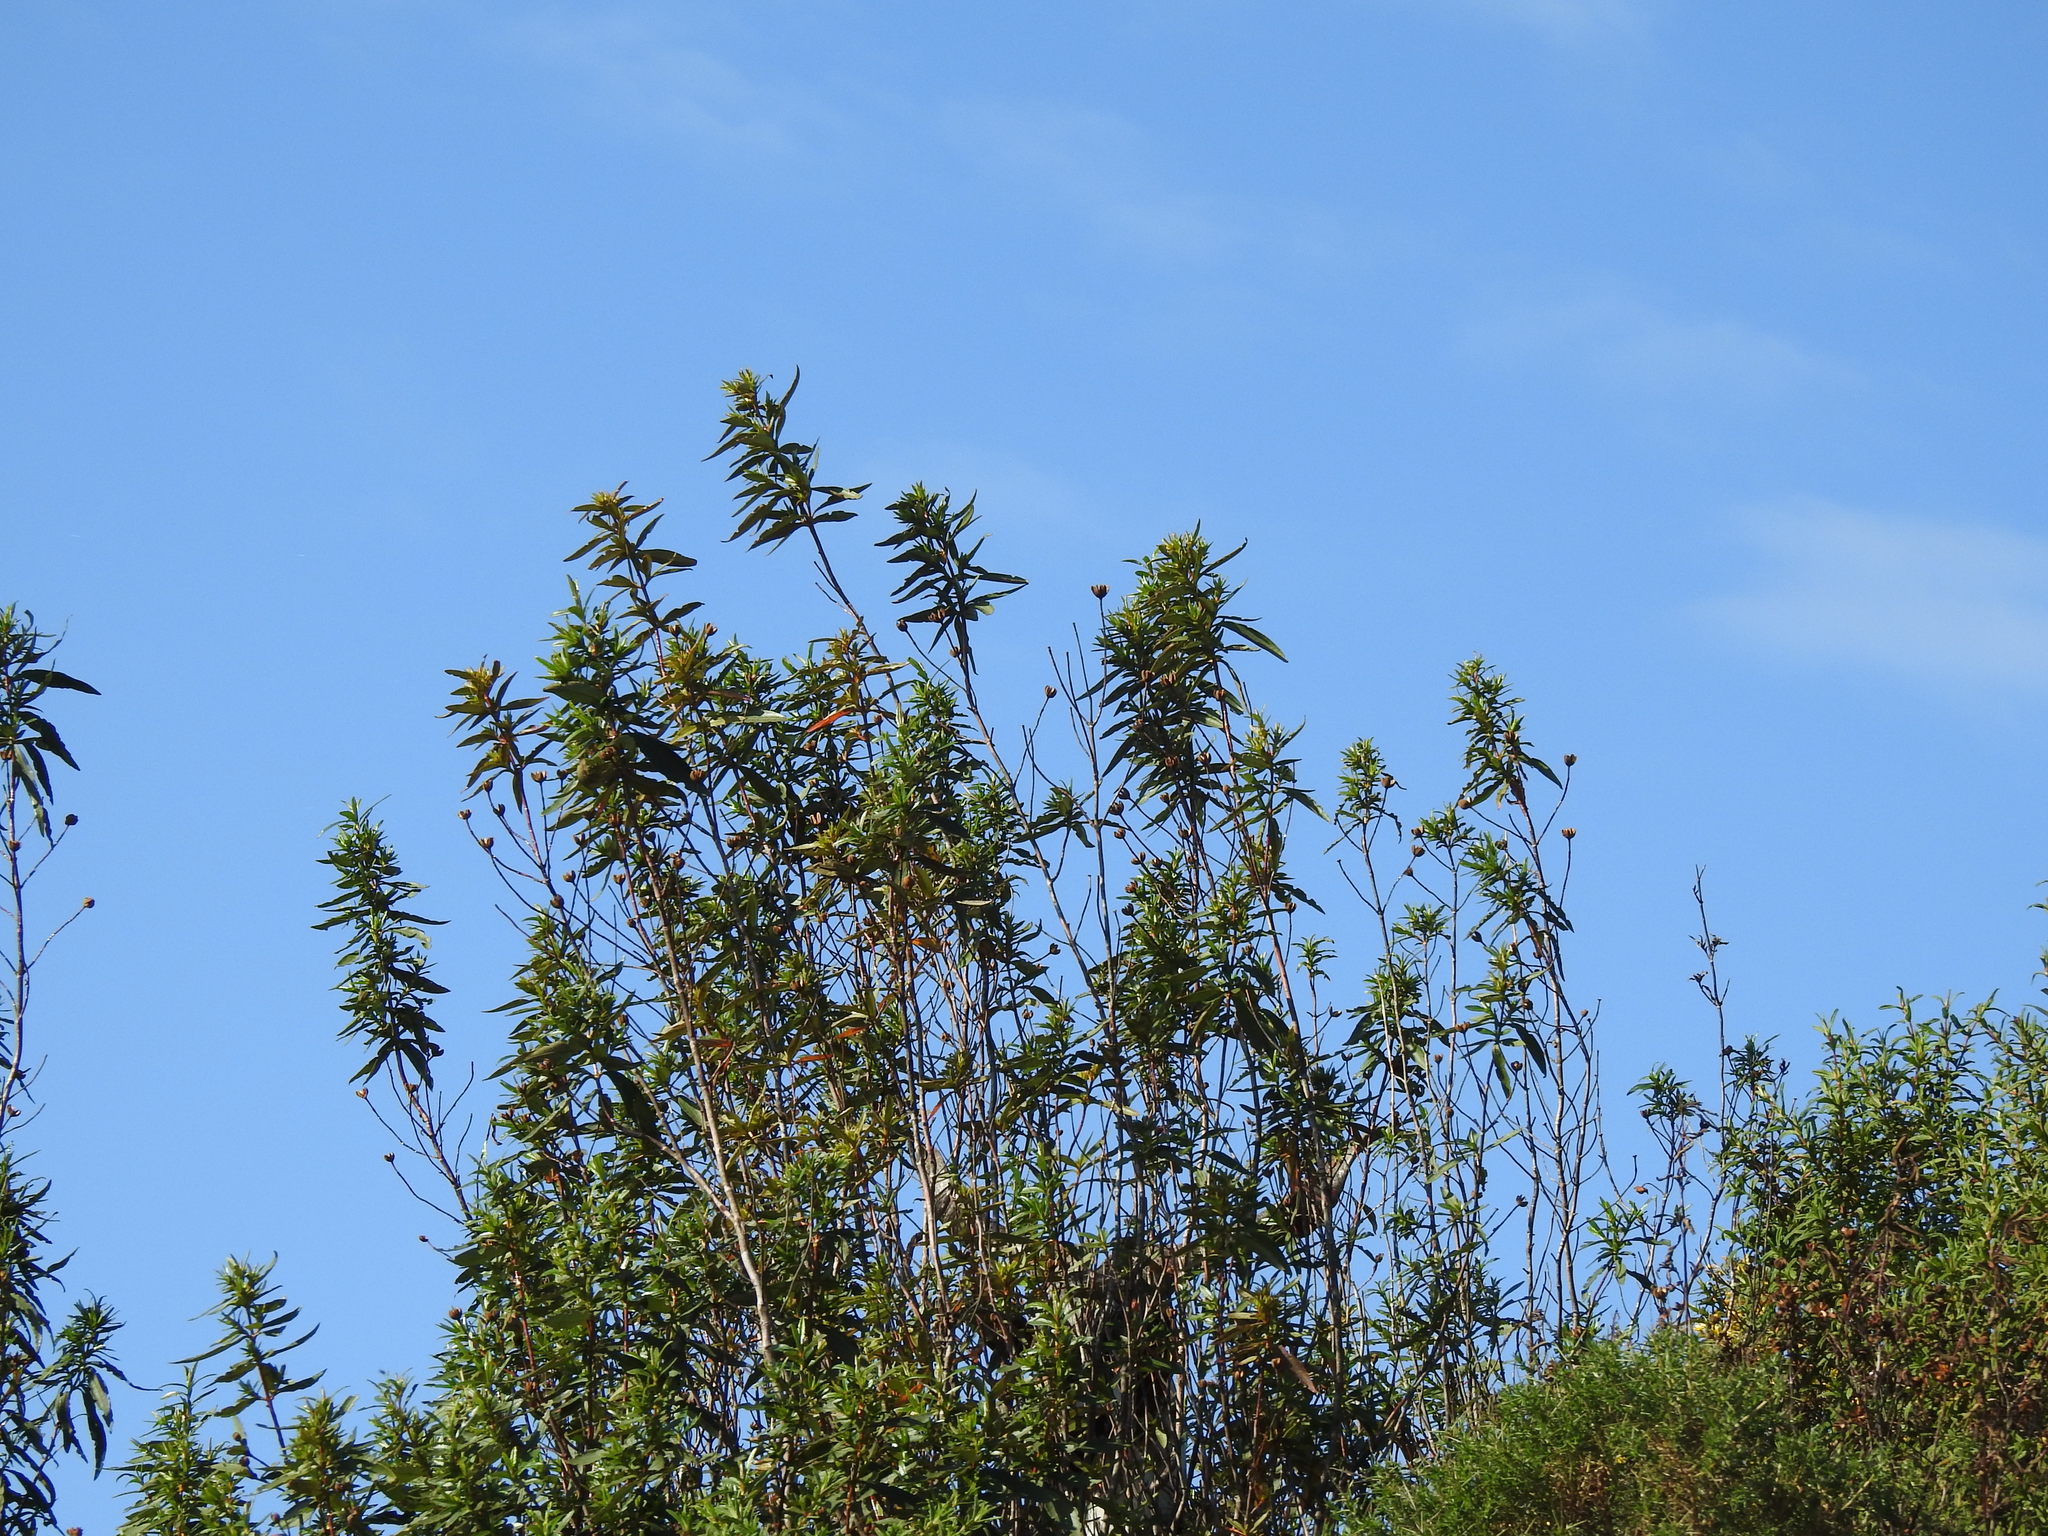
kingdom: Plantae
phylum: Tracheophyta
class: Magnoliopsida
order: Malvales
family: Cistaceae
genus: Cistus
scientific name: Cistus ladanifer
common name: Common gum cistus
